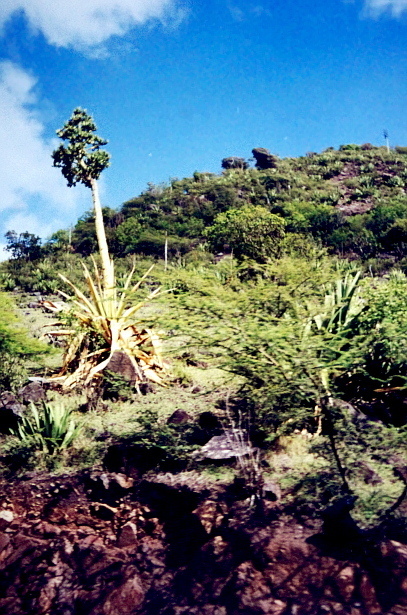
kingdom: Plantae
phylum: Tracheophyta
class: Liliopsida
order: Asparagales
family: Asparagaceae
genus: Agave
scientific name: Agave karatto
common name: Century plant
